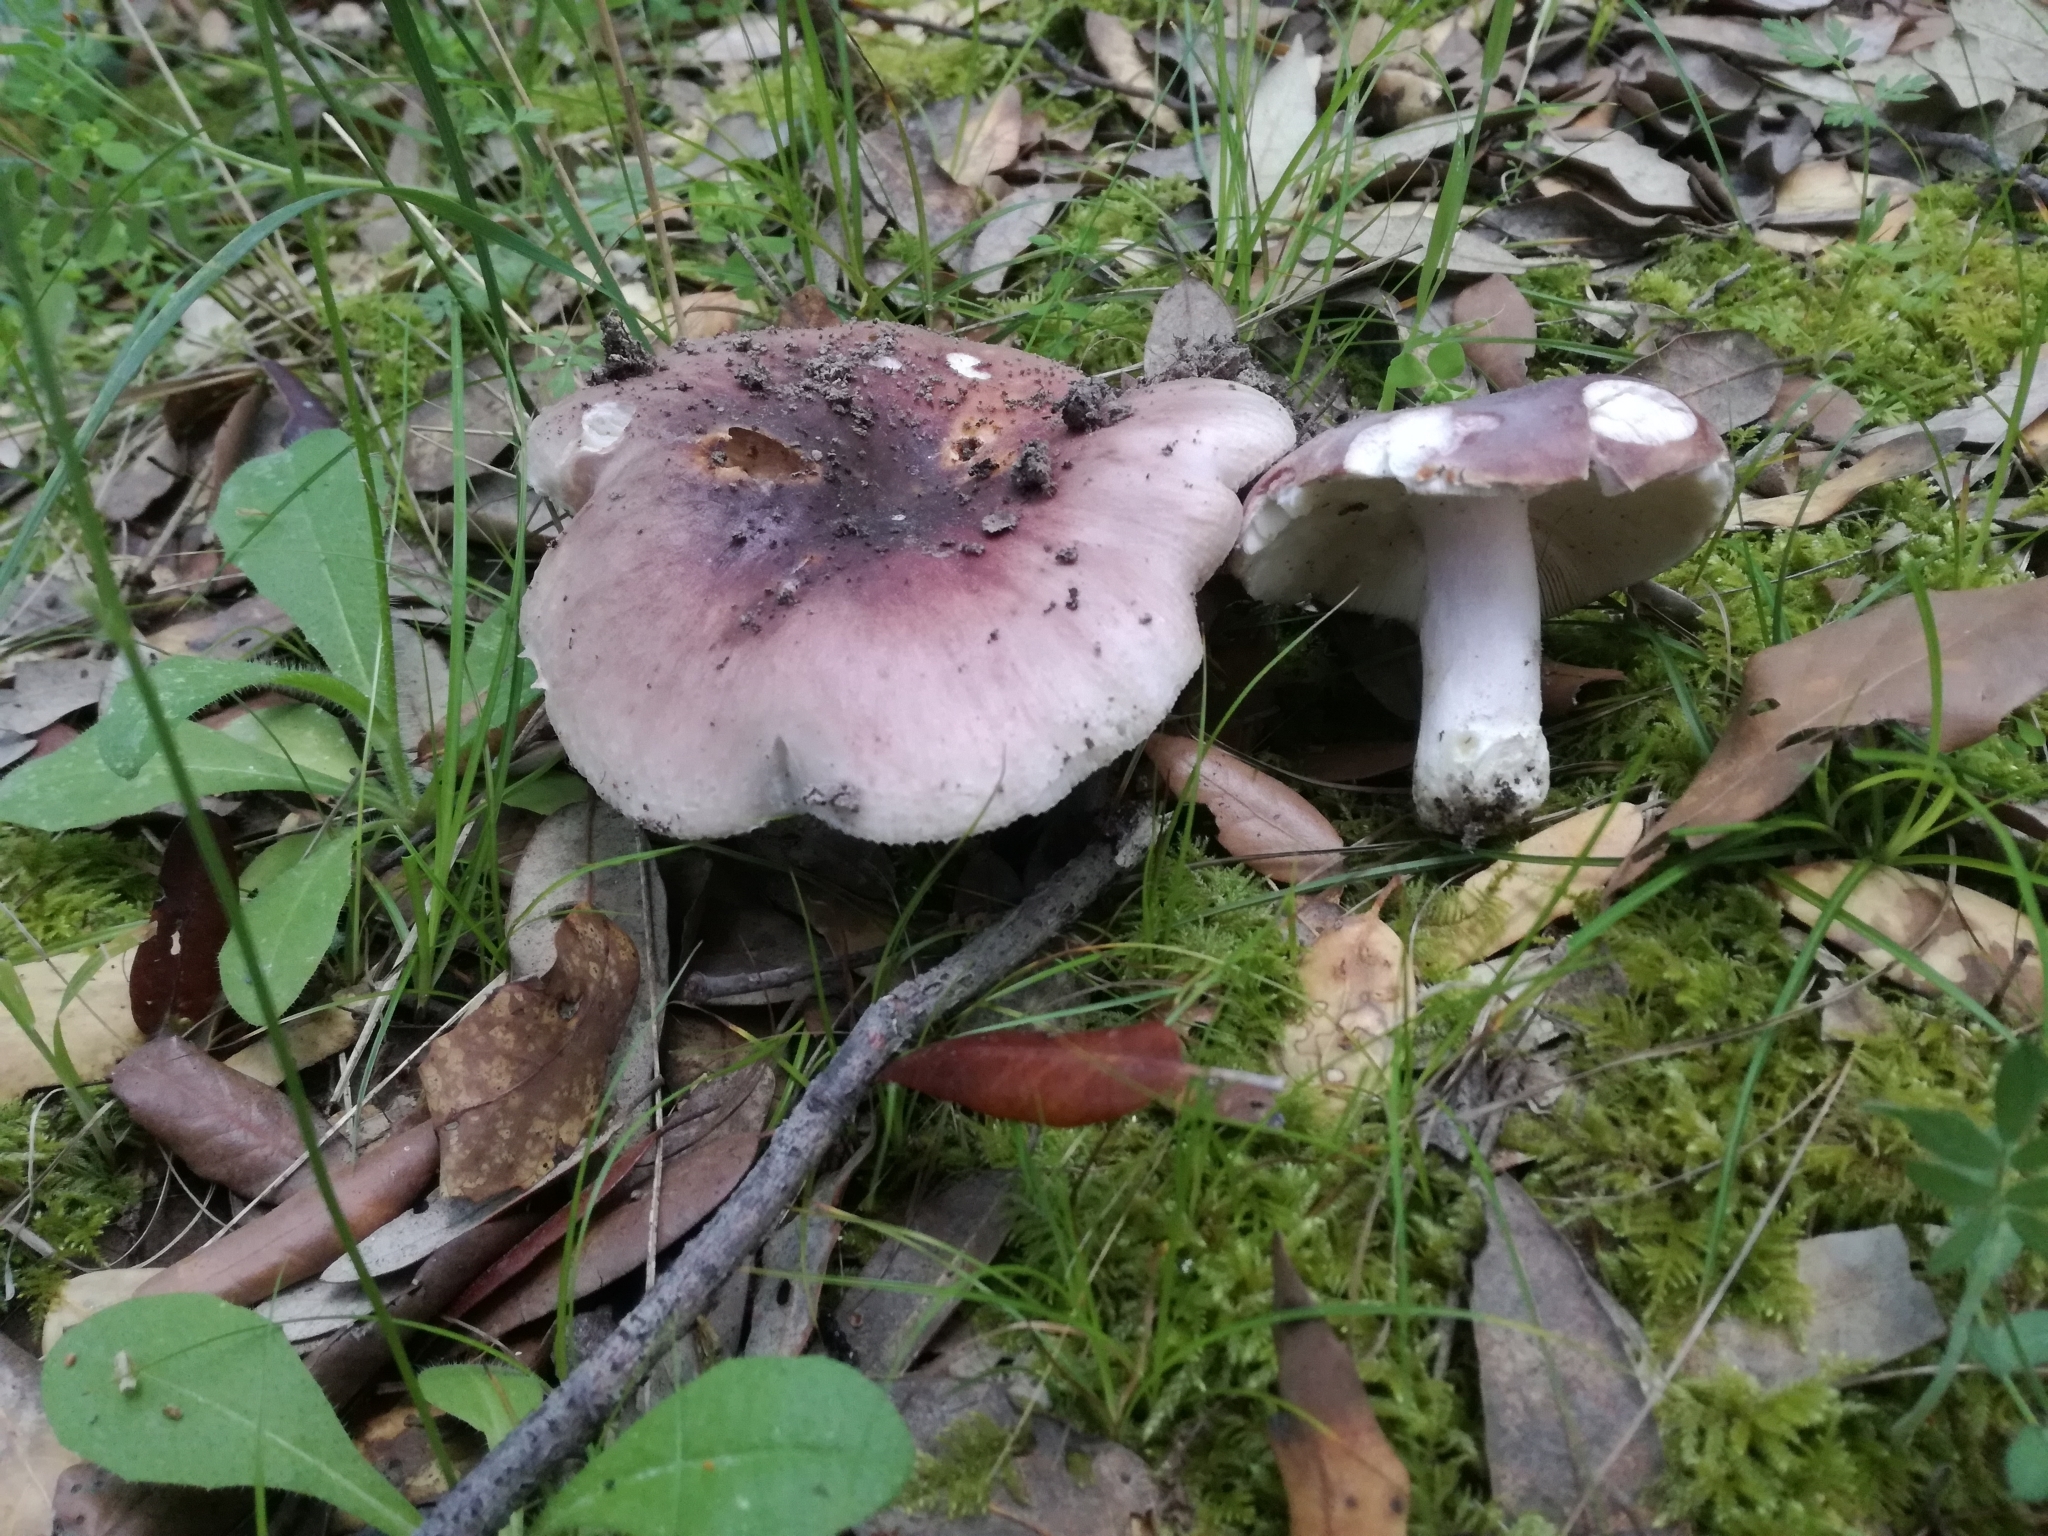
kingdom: Fungi
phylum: Basidiomycota
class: Agaricomycetes
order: Russulales
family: Russulaceae
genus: Russula
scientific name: Russula vesca
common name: Bare-toothed russula
